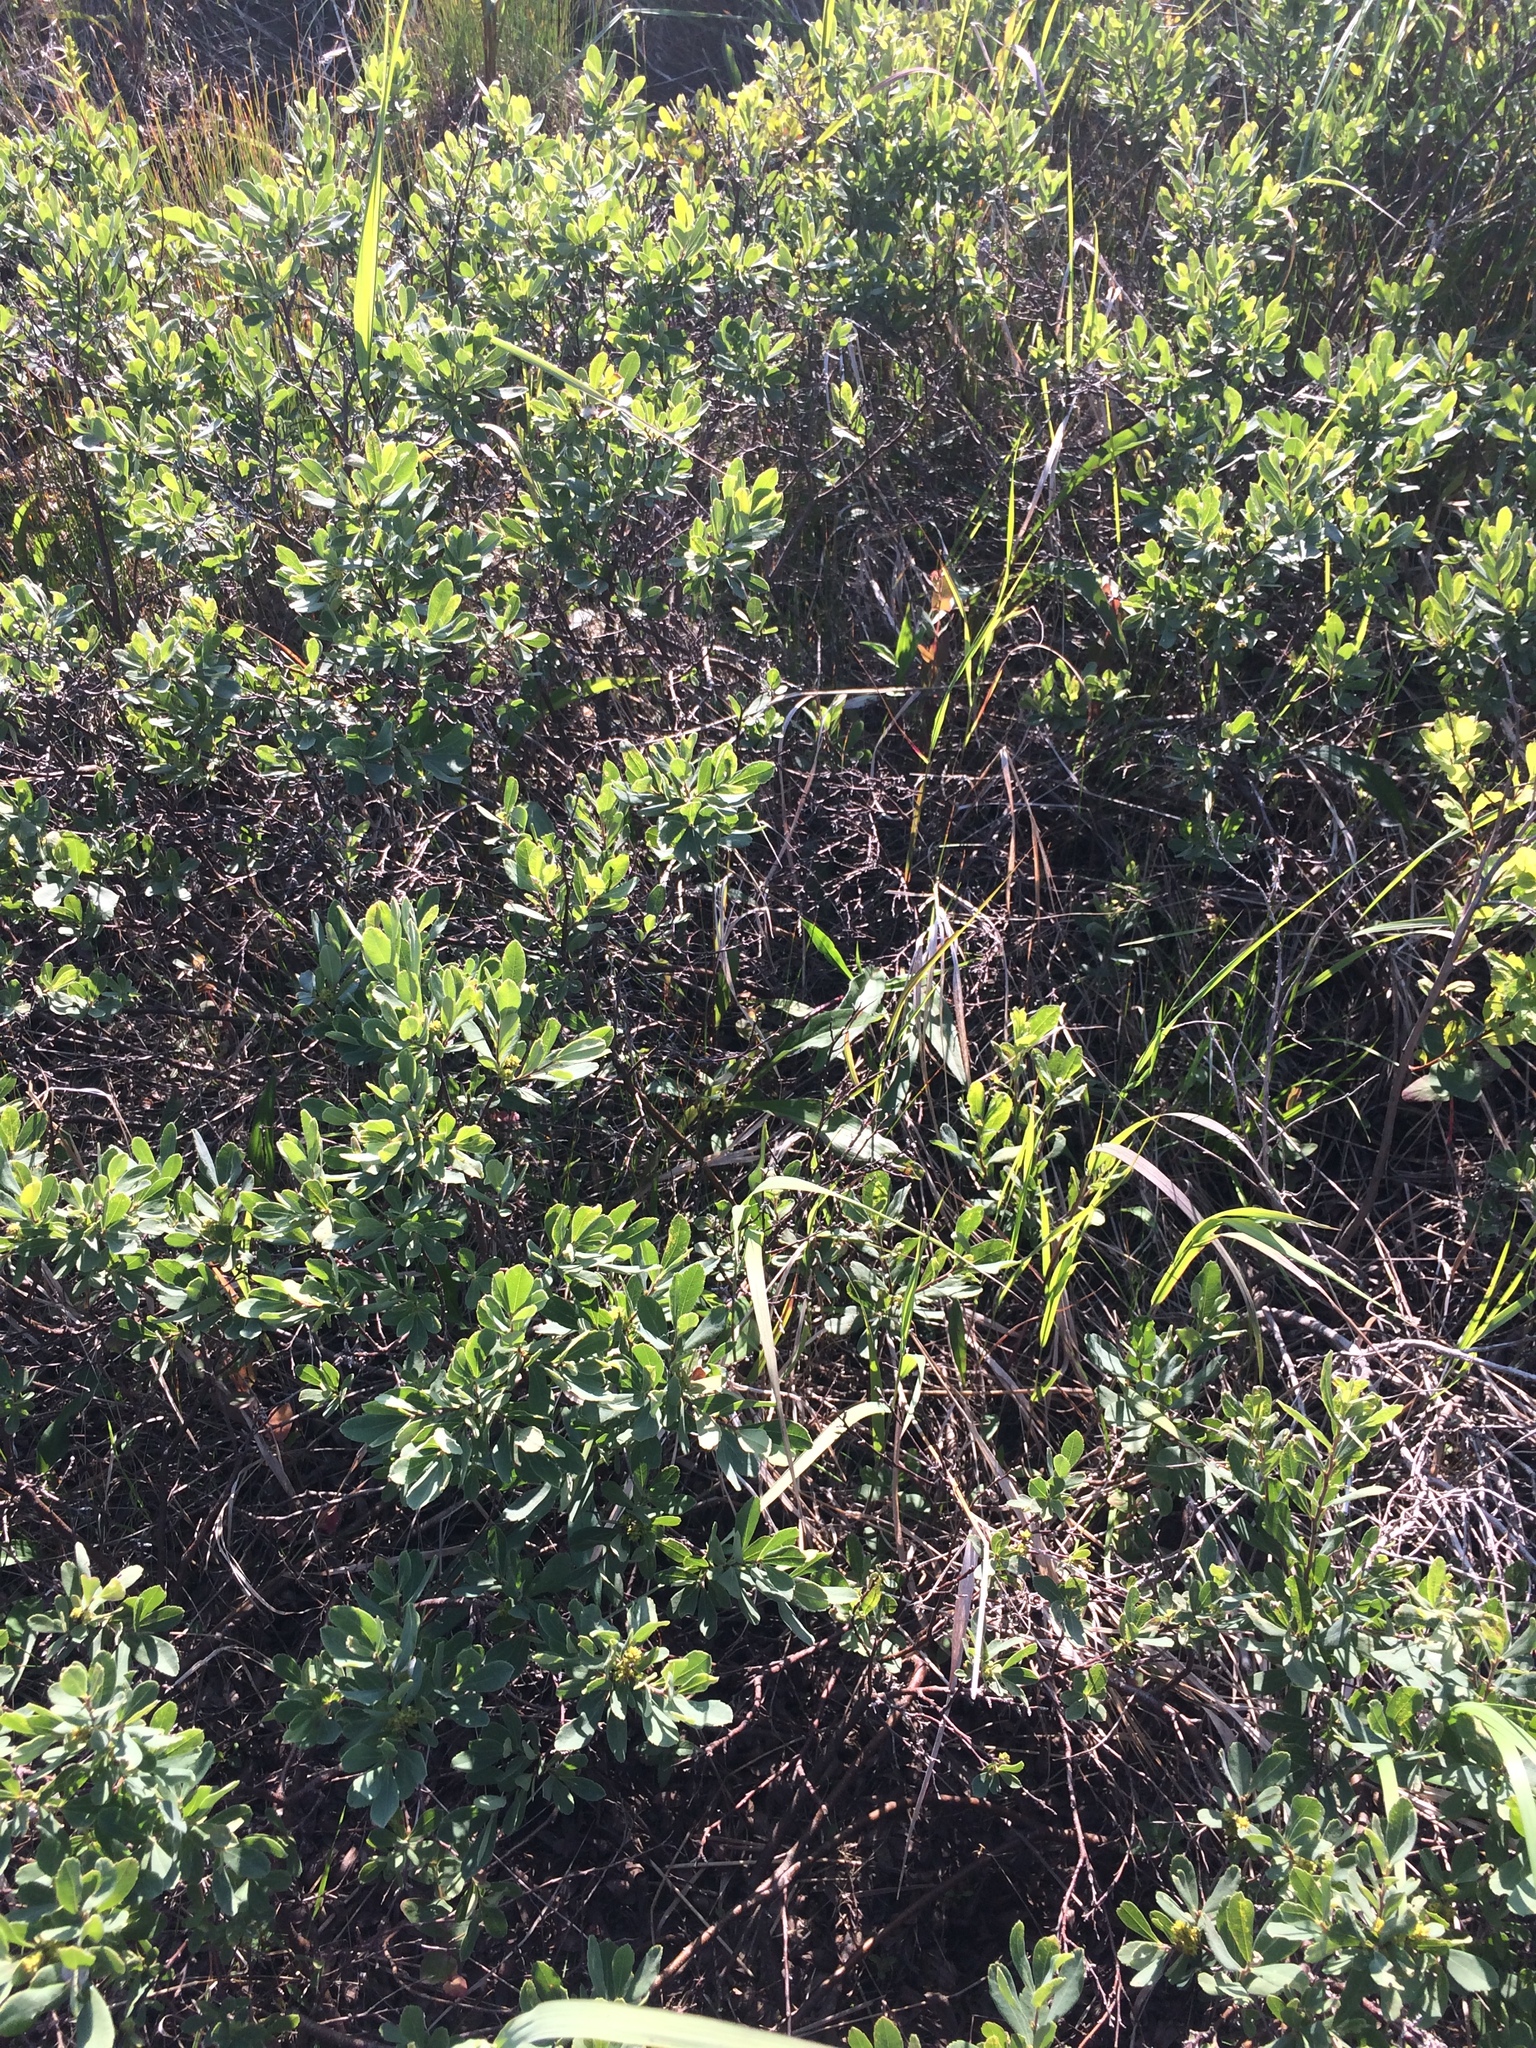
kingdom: Plantae
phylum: Tracheophyta
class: Magnoliopsida
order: Fagales
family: Myricaceae
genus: Myrica
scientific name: Myrica gale
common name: Sweet gale
